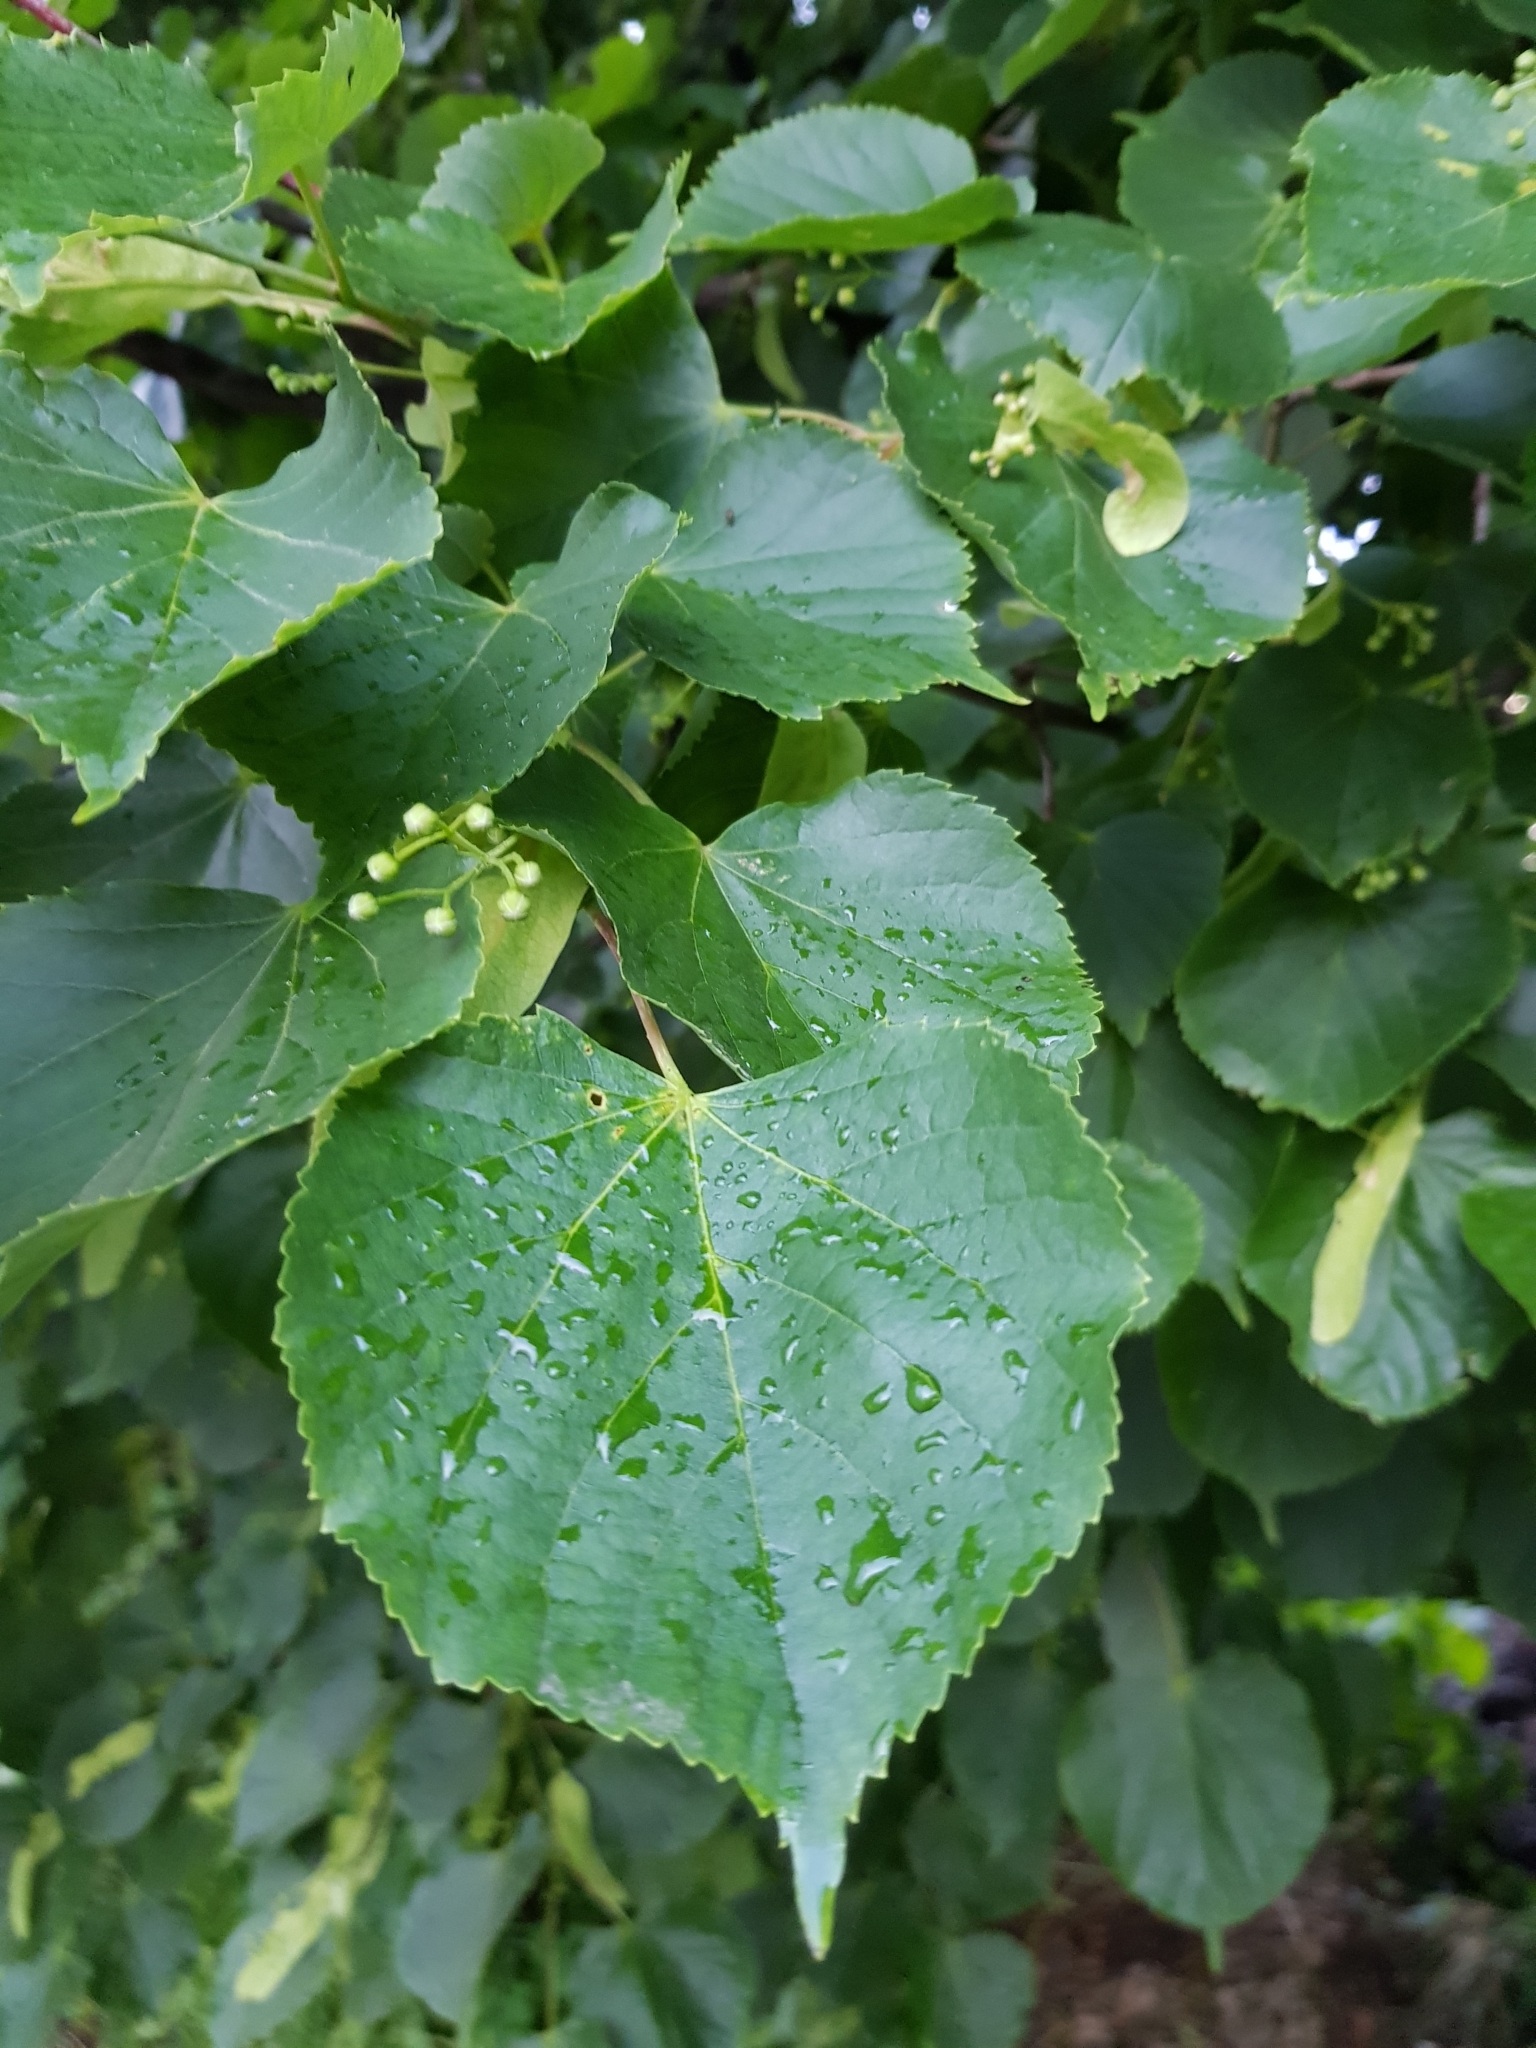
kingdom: Plantae
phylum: Tracheophyta
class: Magnoliopsida
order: Malvales
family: Malvaceae
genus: Tilia
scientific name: Tilia cordata
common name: Small-leaved lime
